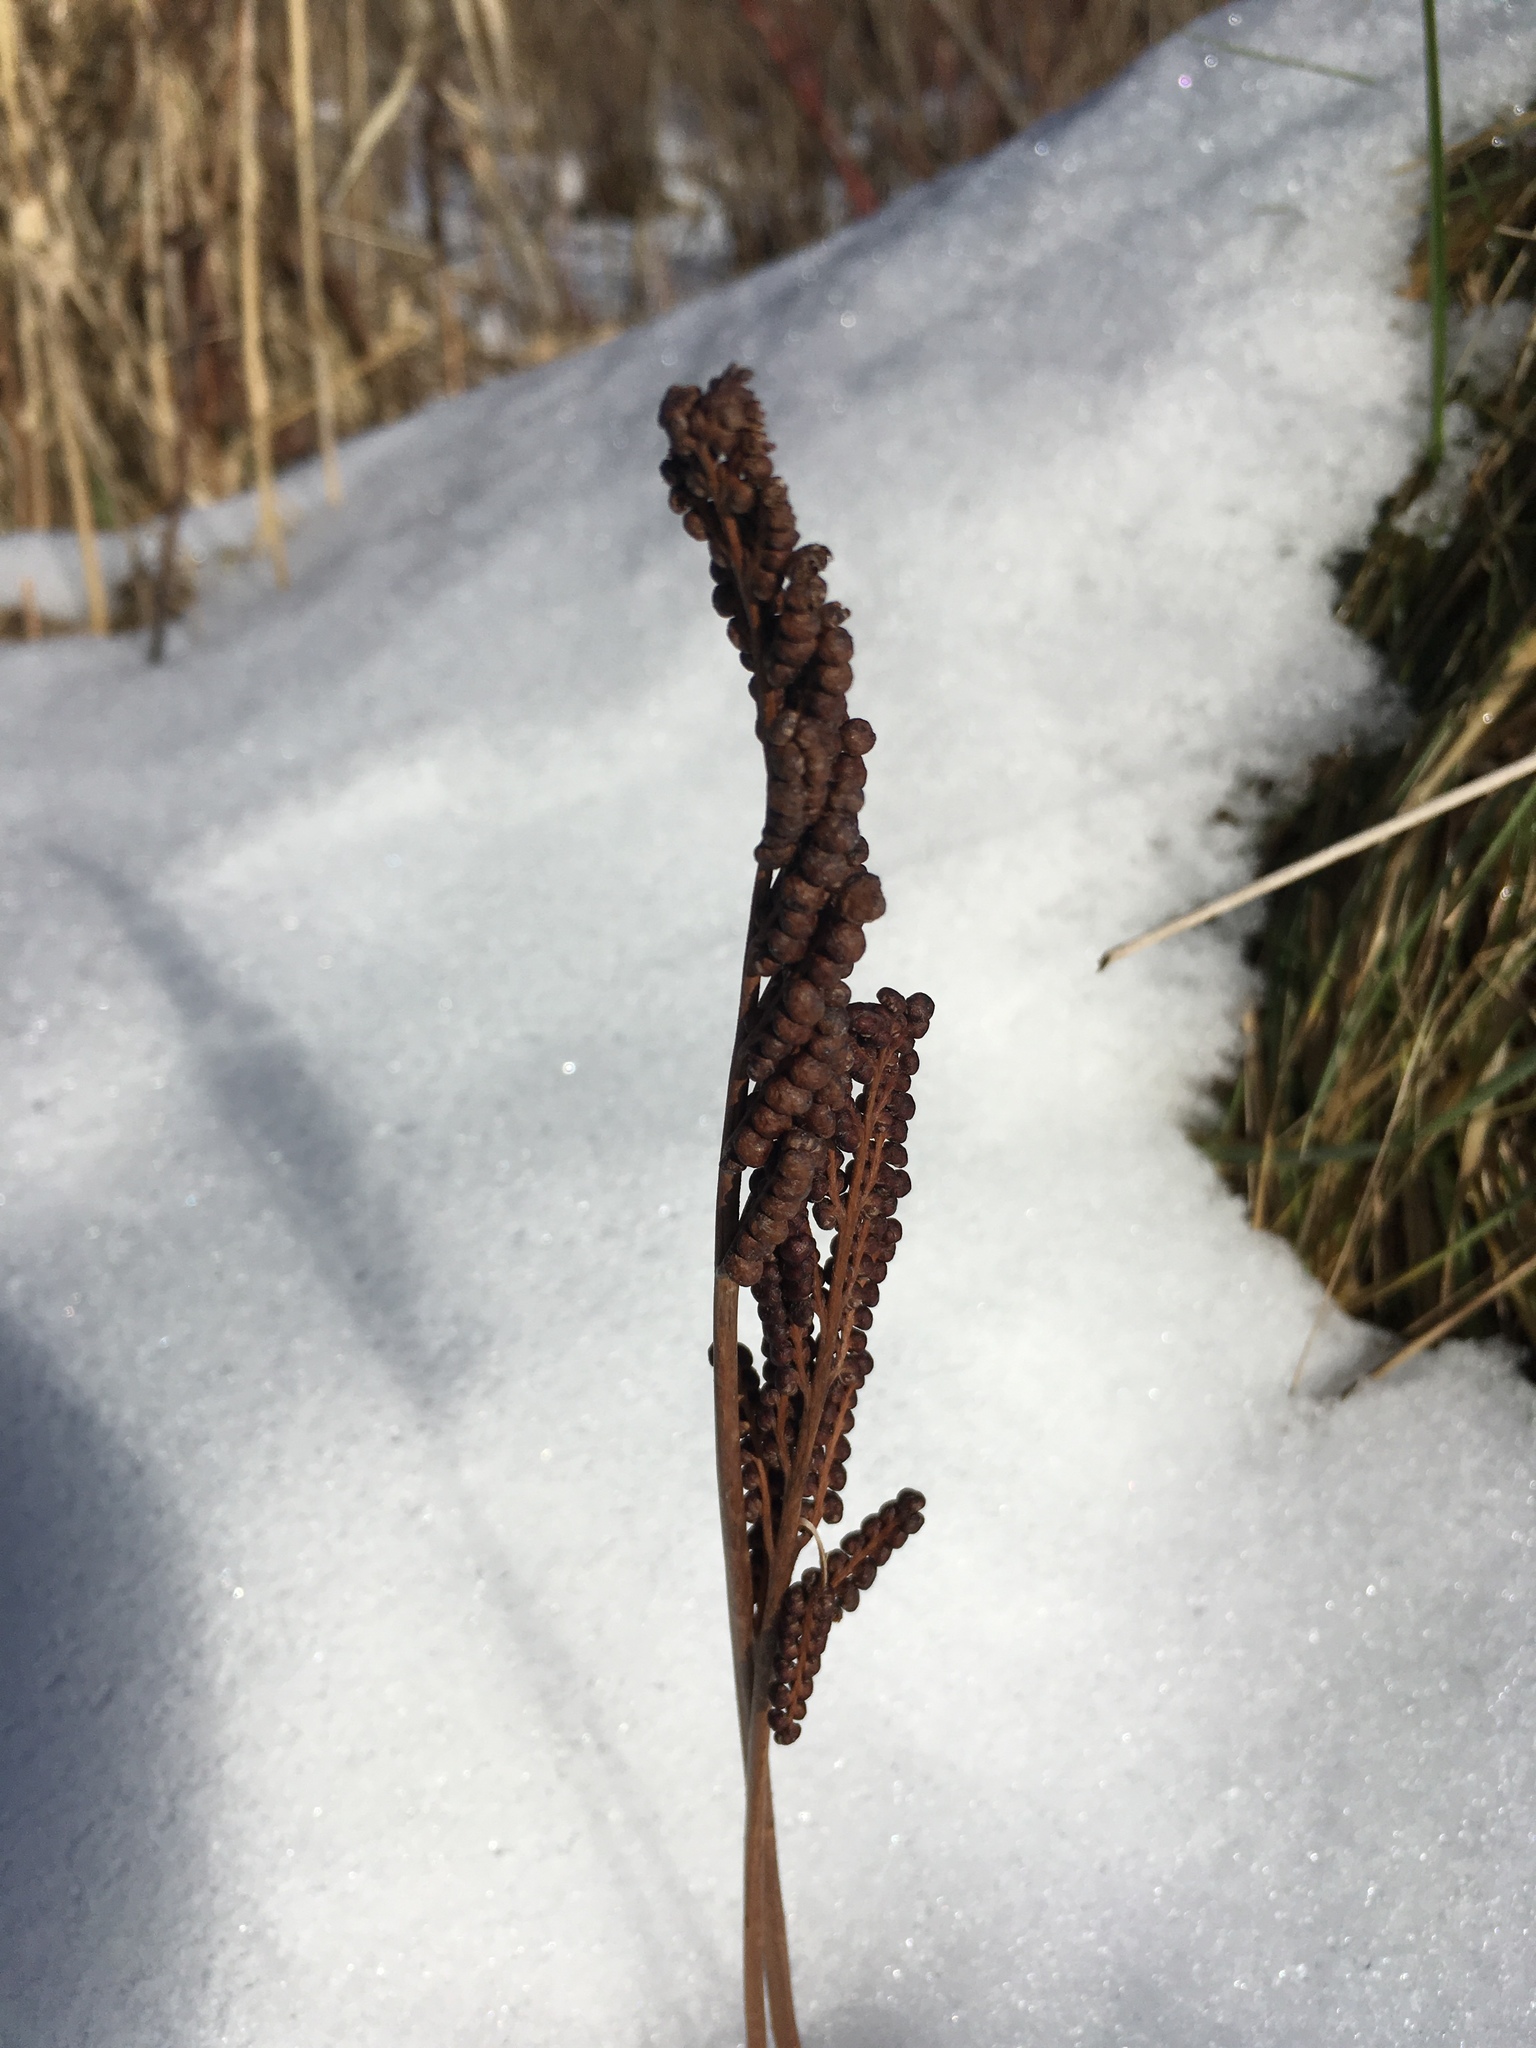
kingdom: Plantae
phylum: Tracheophyta
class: Polypodiopsida
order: Polypodiales
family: Onocleaceae
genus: Onoclea
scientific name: Onoclea sensibilis
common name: Sensitive fern
